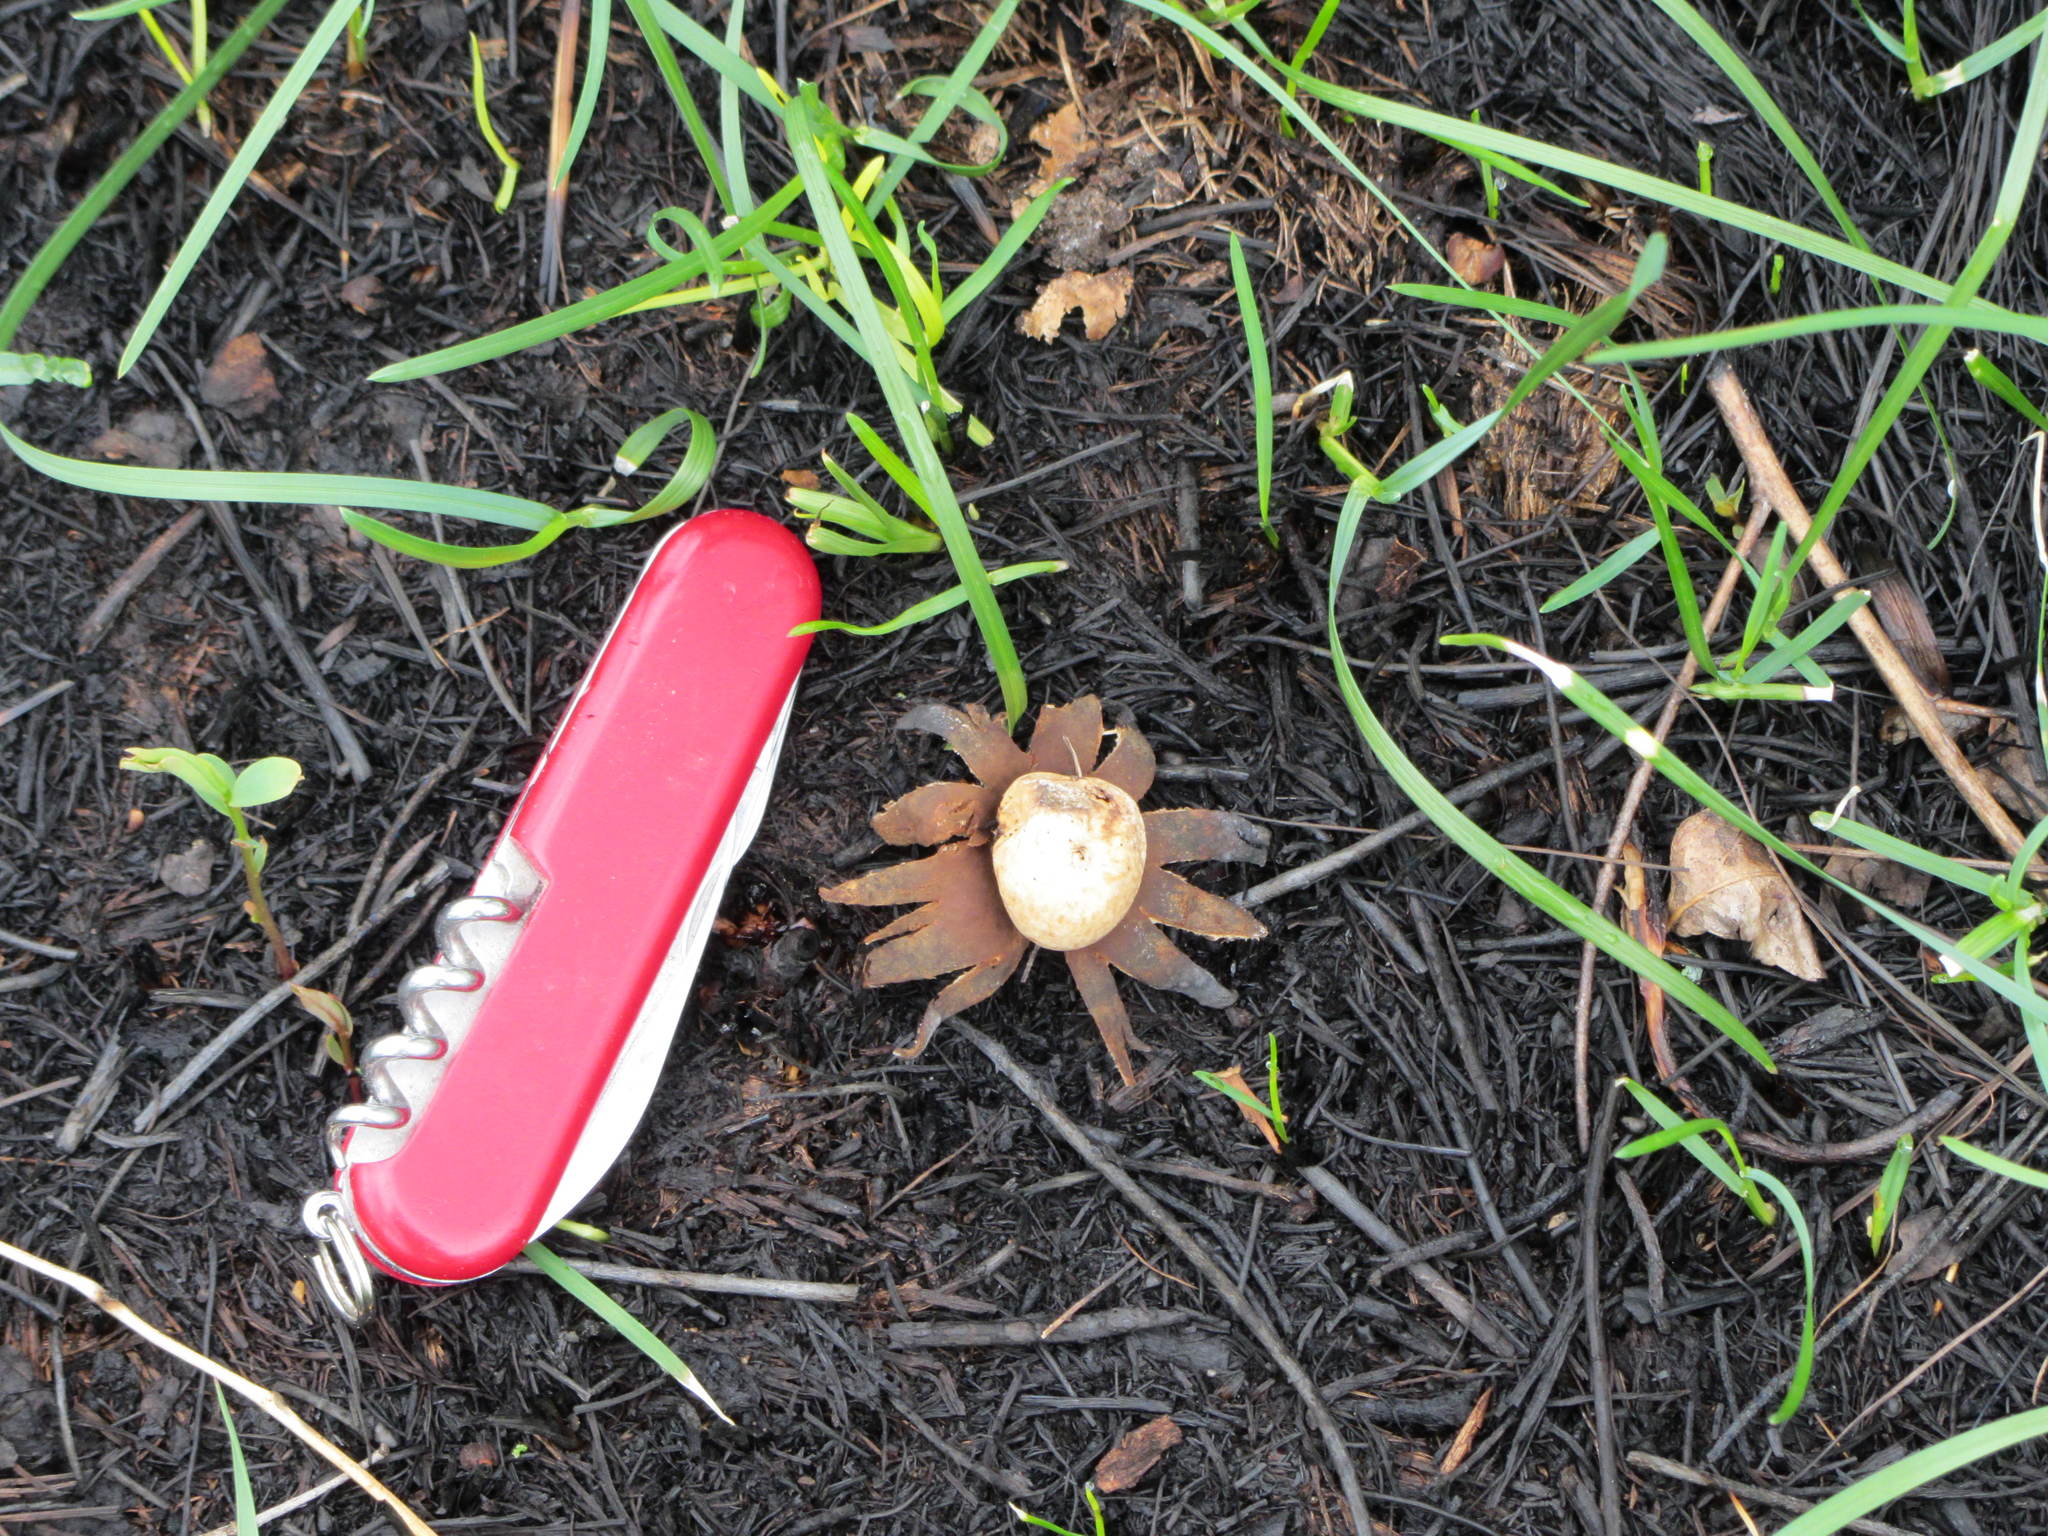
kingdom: Fungi
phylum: Basidiomycota
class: Agaricomycetes
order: Geastrales
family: Geastraceae
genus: Geastrum
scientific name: Geastrum triplex
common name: Collared earthstar
